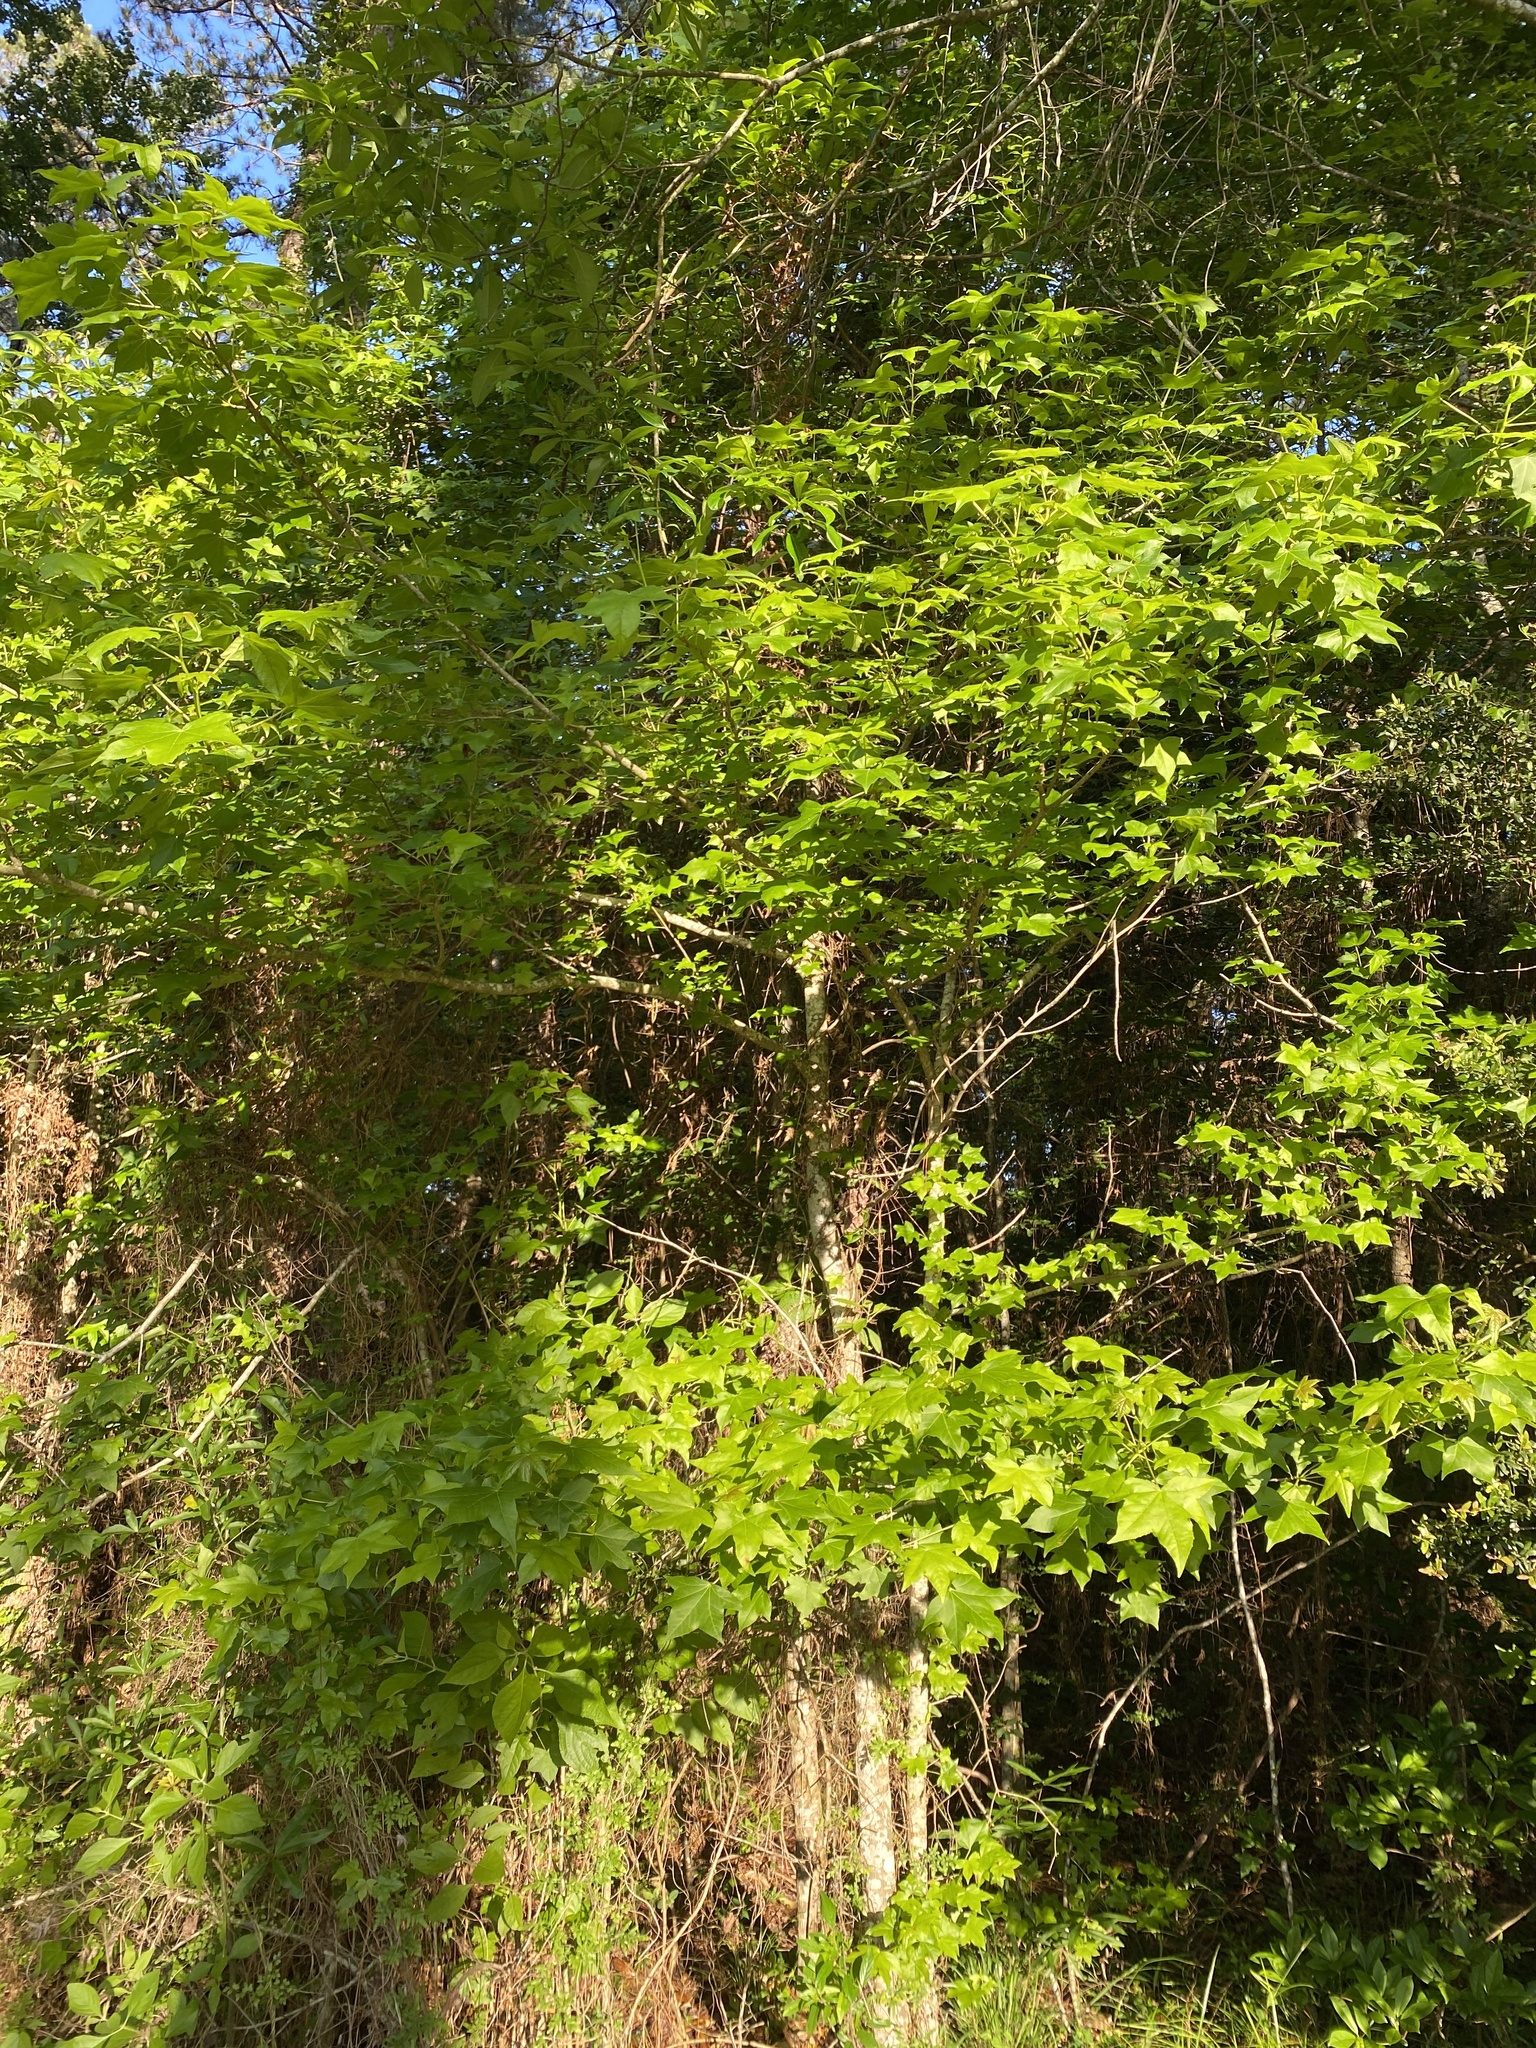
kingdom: Plantae
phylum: Tracheophyta
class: Magnoliopsida
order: Saxifragales
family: Altingiaceae
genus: Liquidambar
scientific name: Liquidambar styraciflua
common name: Sweet gum
